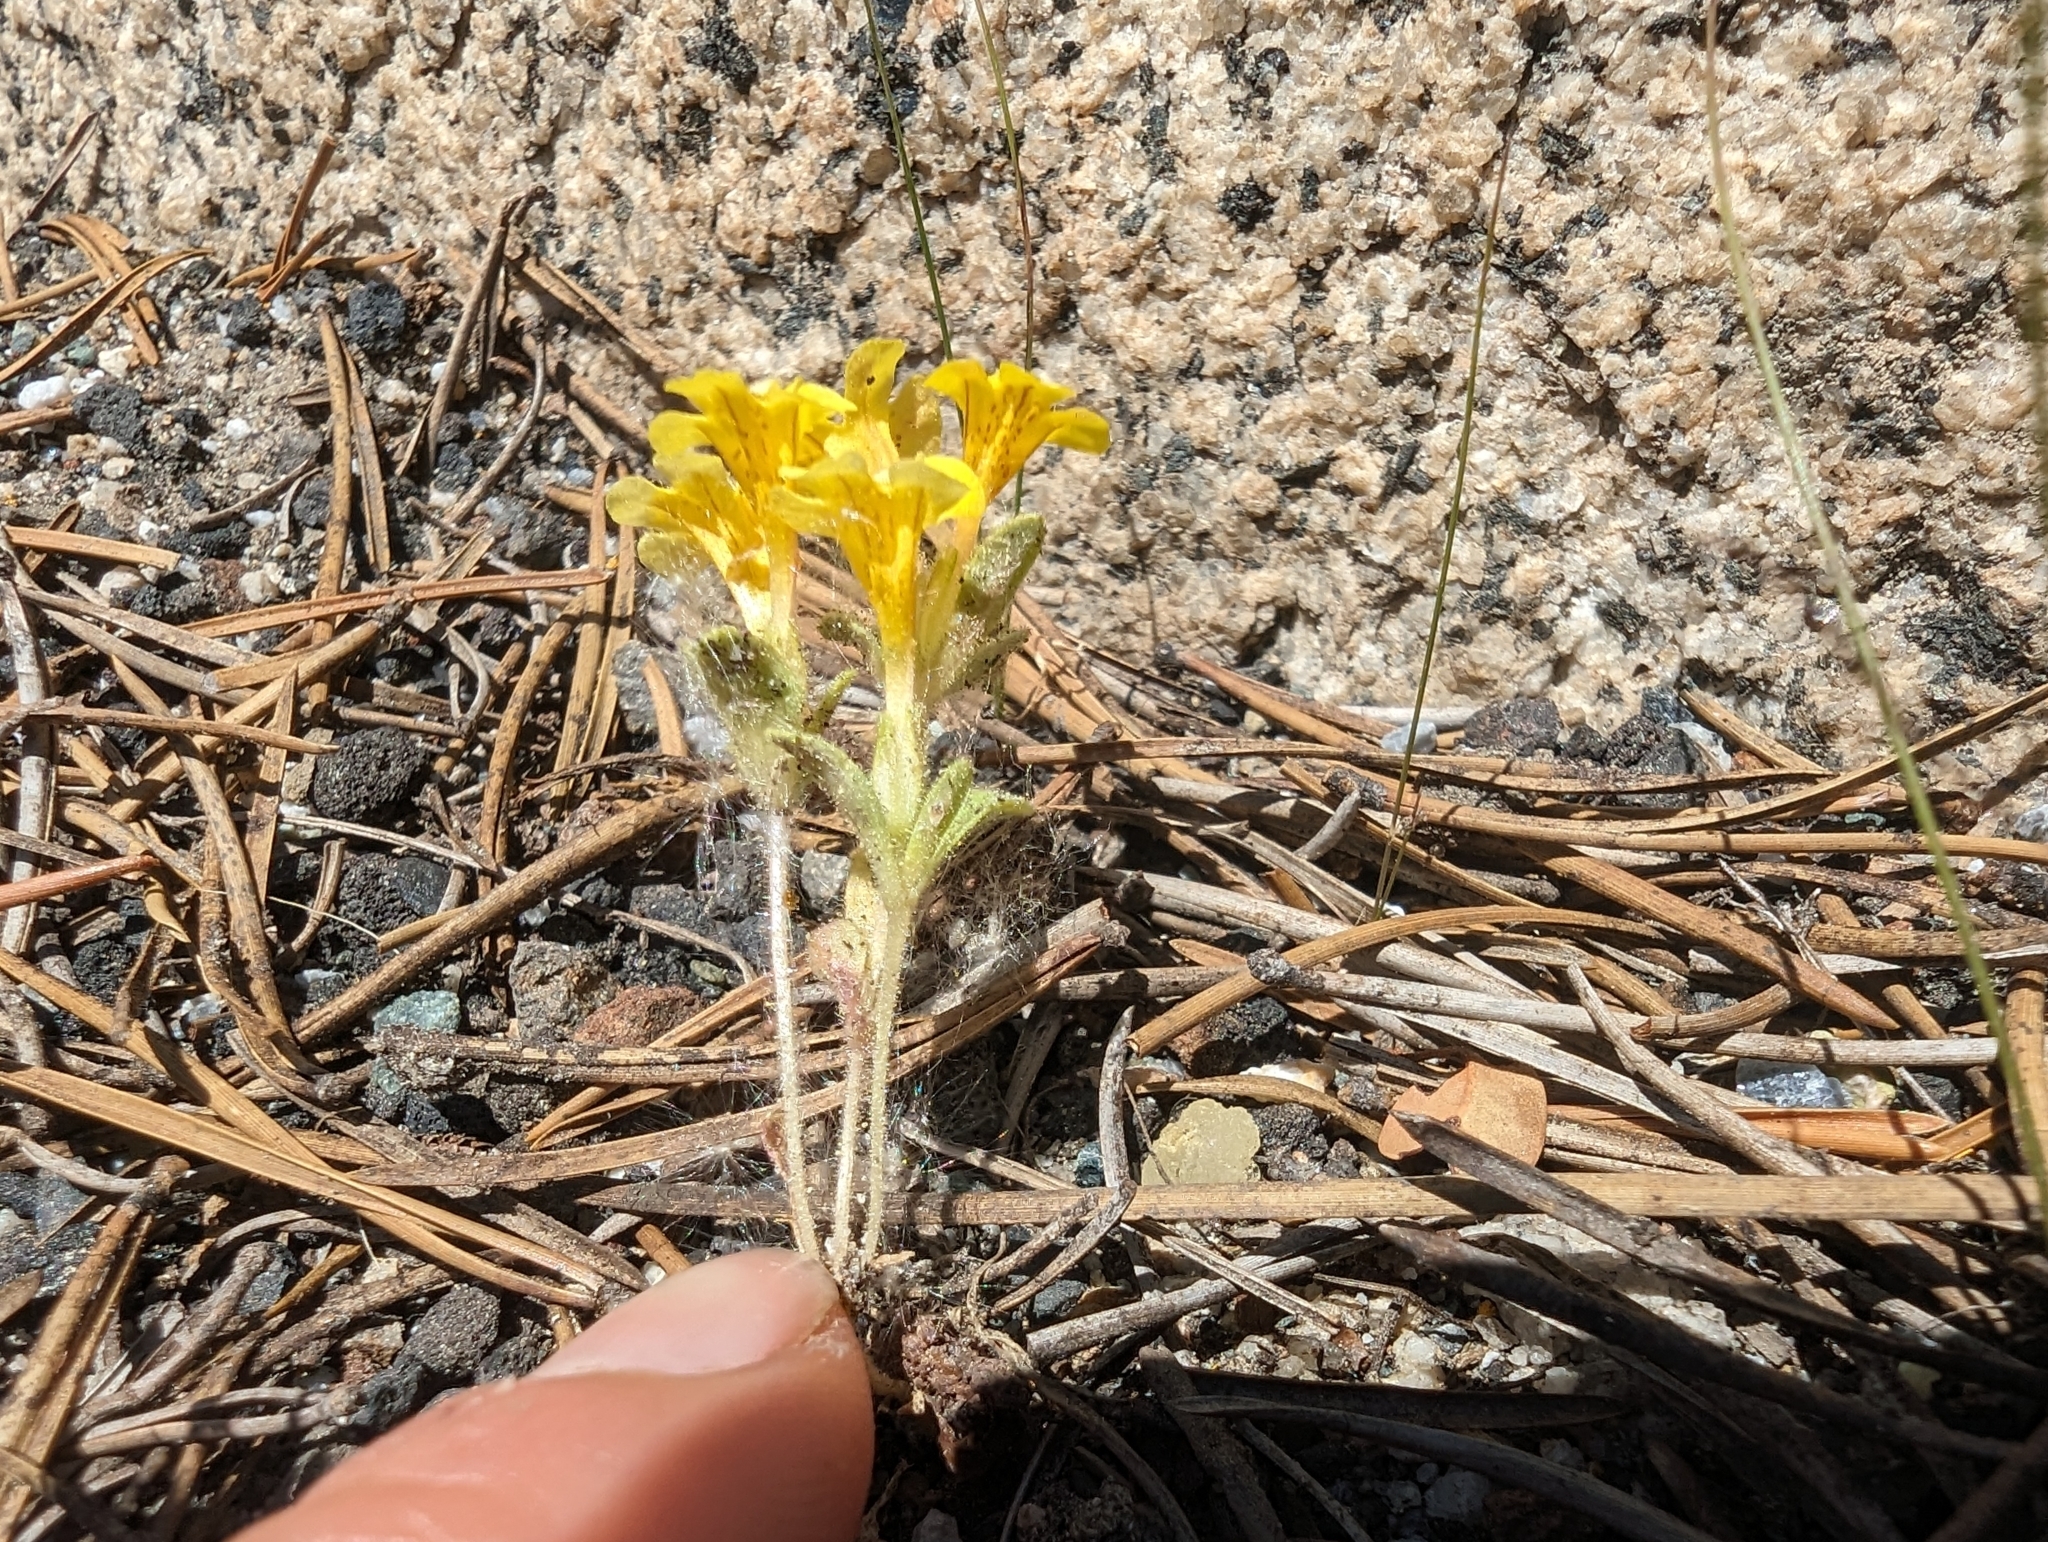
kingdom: Plantae
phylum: Tracheophyta
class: Magnoliopsida
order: Lamiales
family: Phrymaceae
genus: Diplacus
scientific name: Diplacus mephiticus
